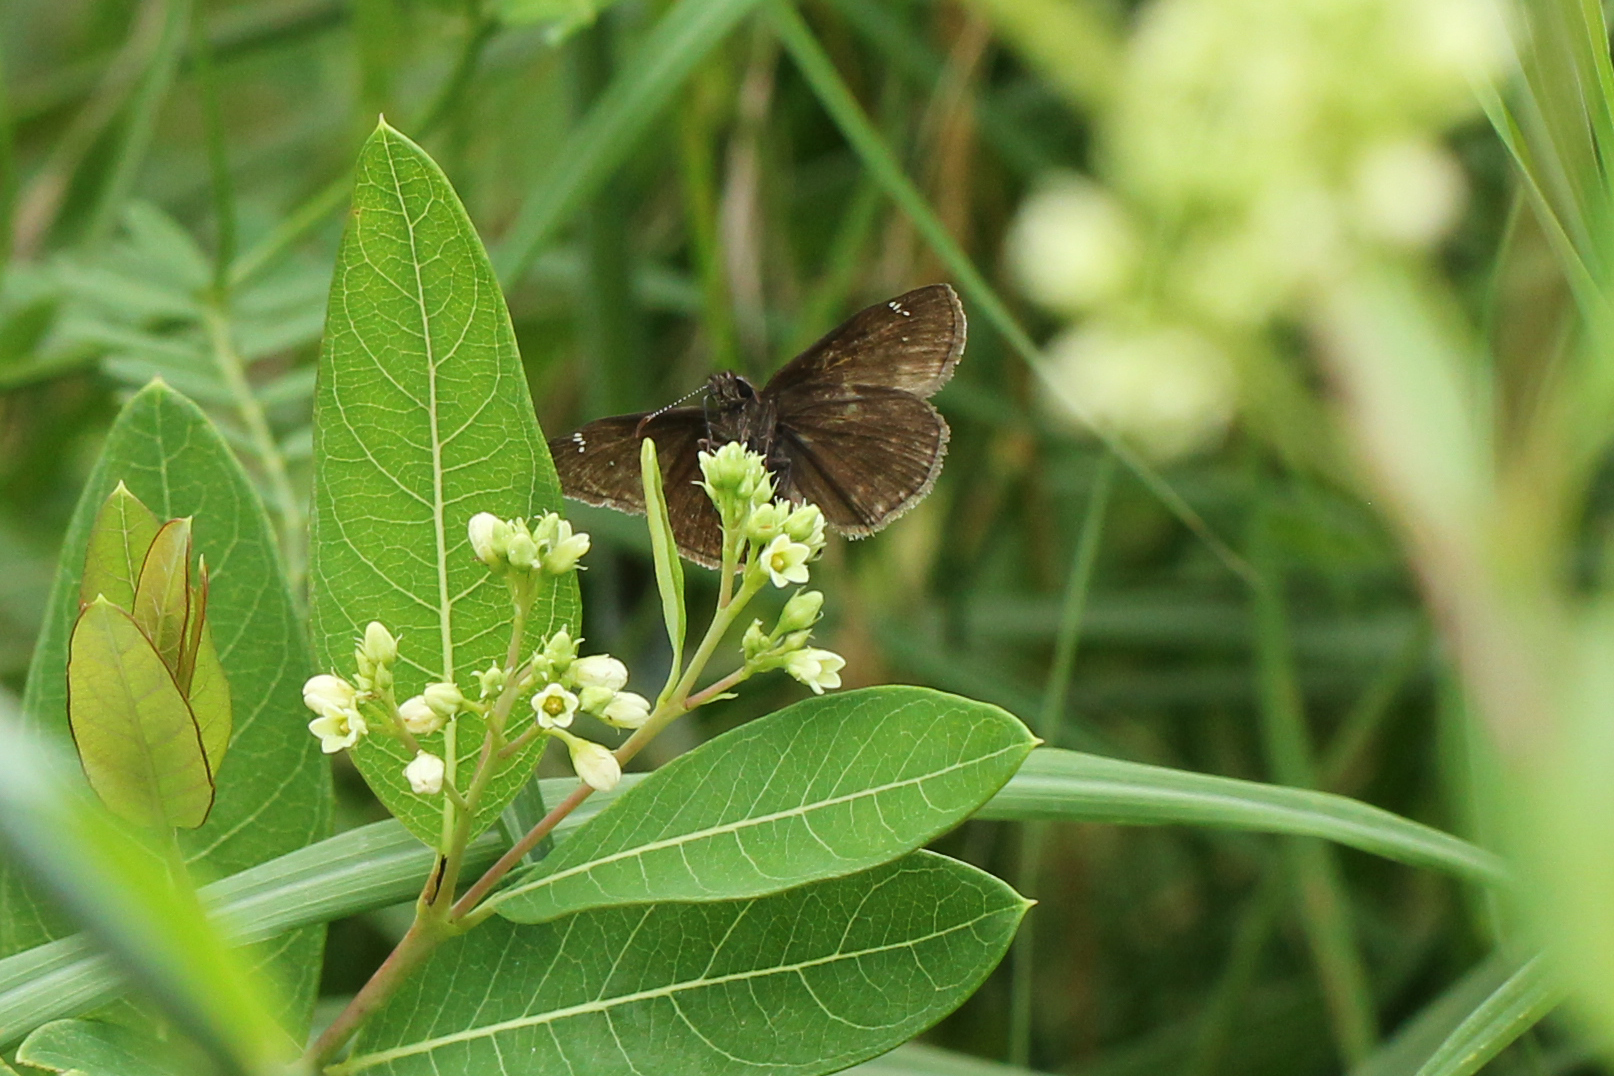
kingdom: Animalia
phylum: Arthropoda
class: Insecta
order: Lepidoptera
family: Hesperiidae
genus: Erynnis
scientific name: Erynnis baptisiae
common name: Wild indigo duskywing
